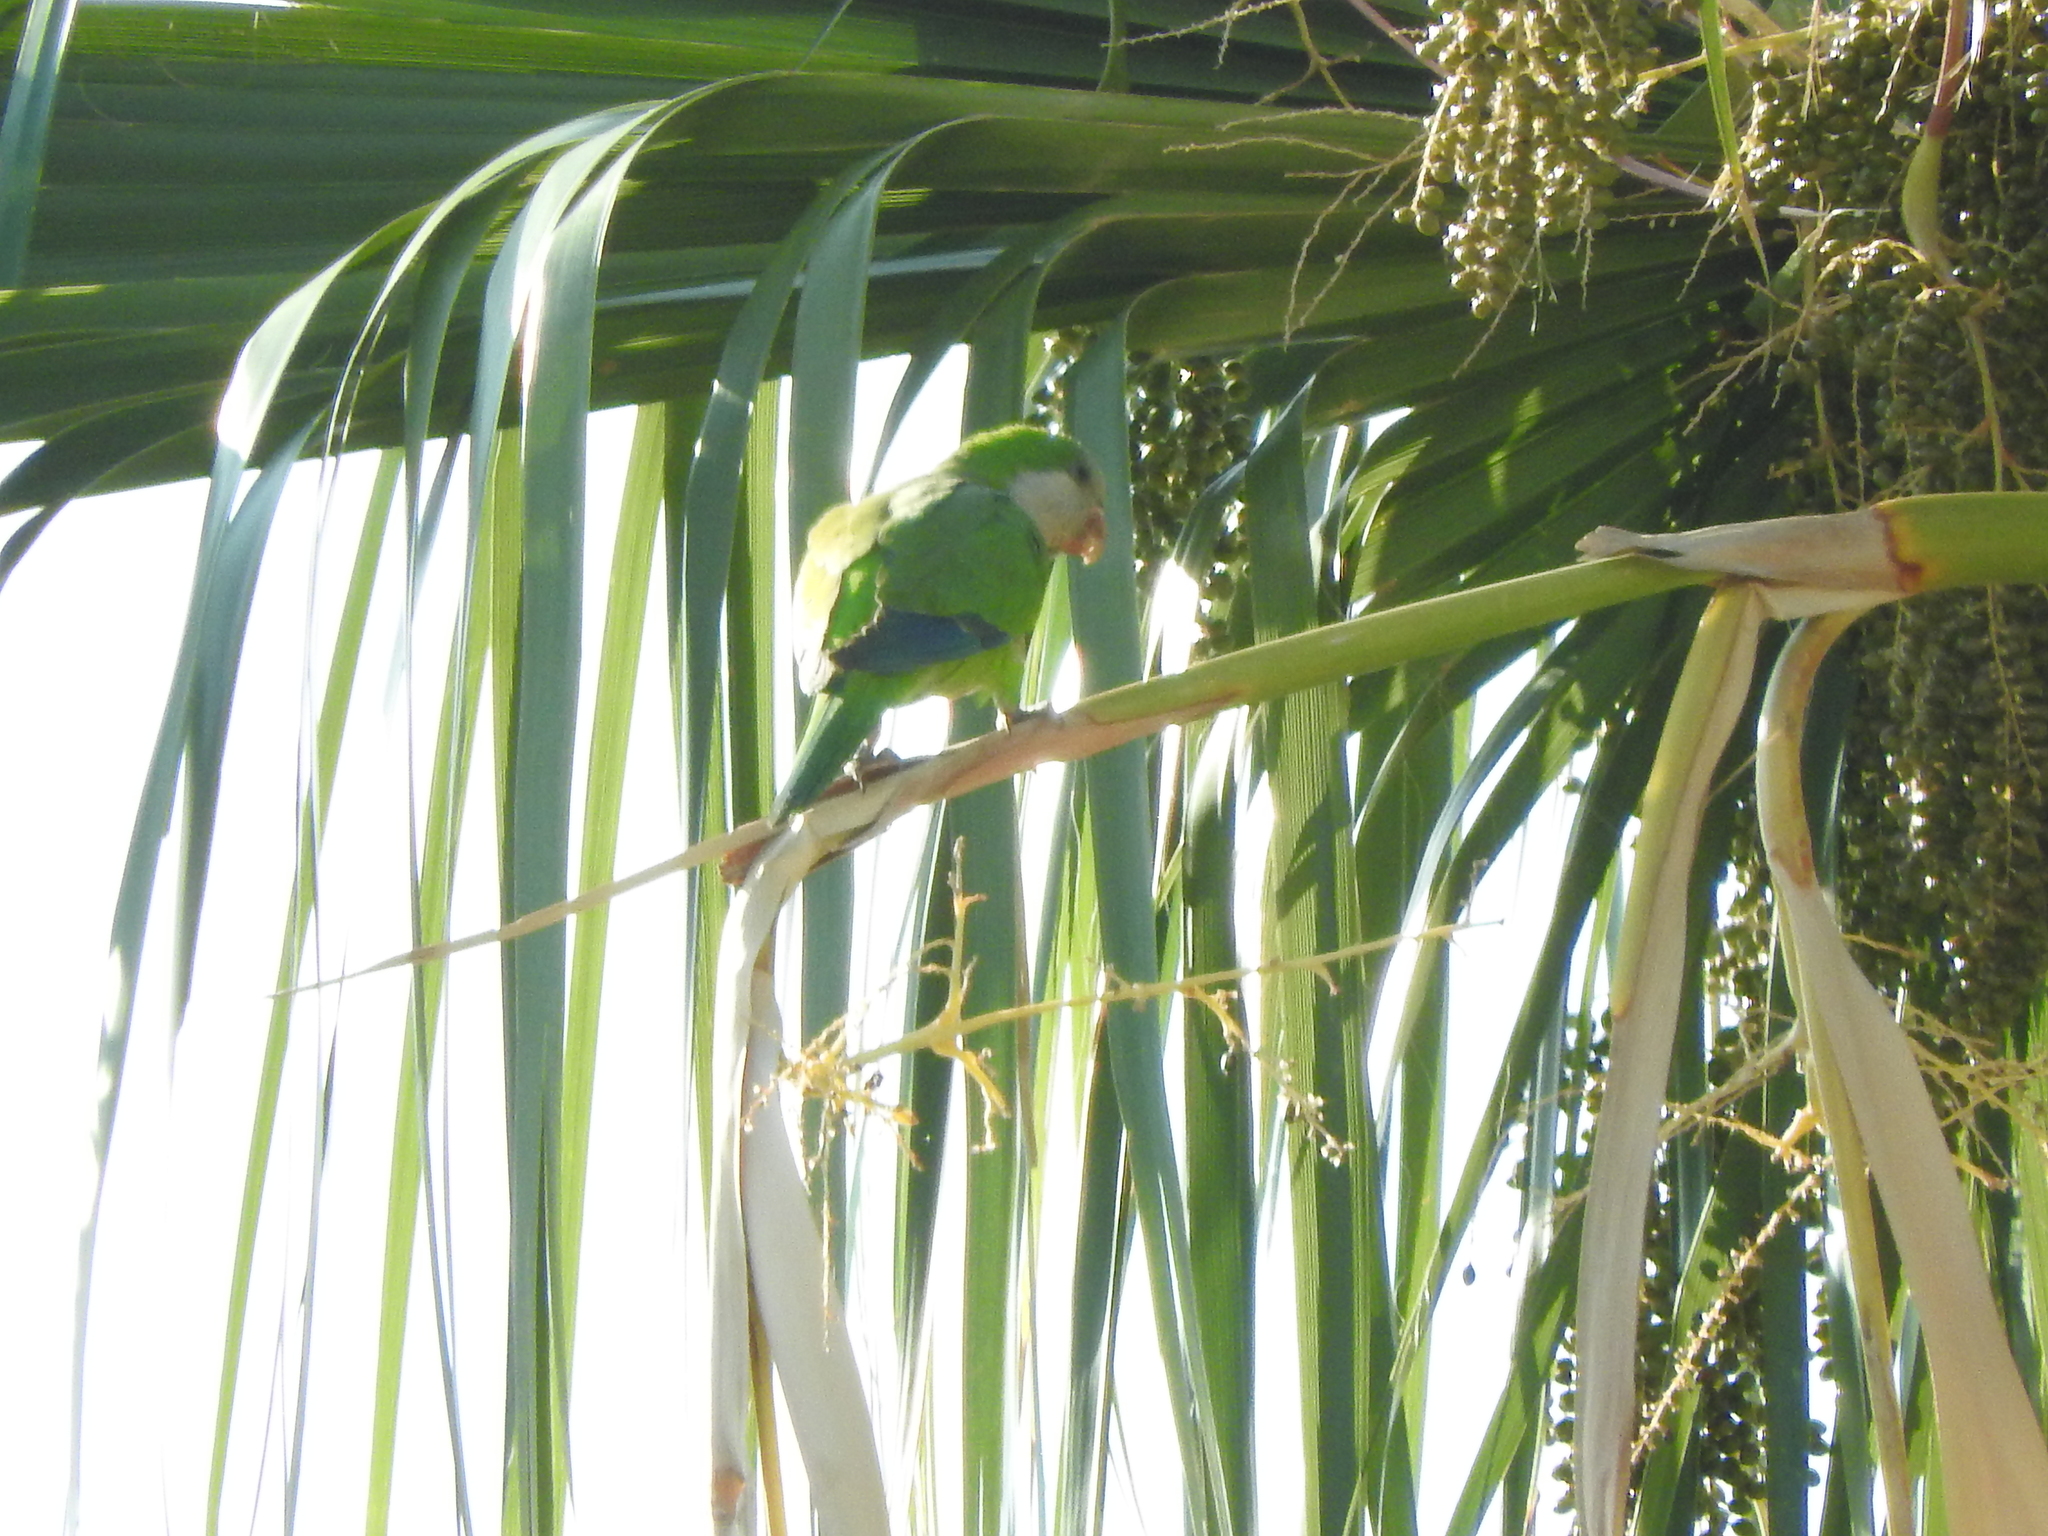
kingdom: Animalia
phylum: Chordata
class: Aves
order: Psittaciformes
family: Psittacidae
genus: Myiopsitta
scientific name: Myiopsitta monachus
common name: Monk parakeet
